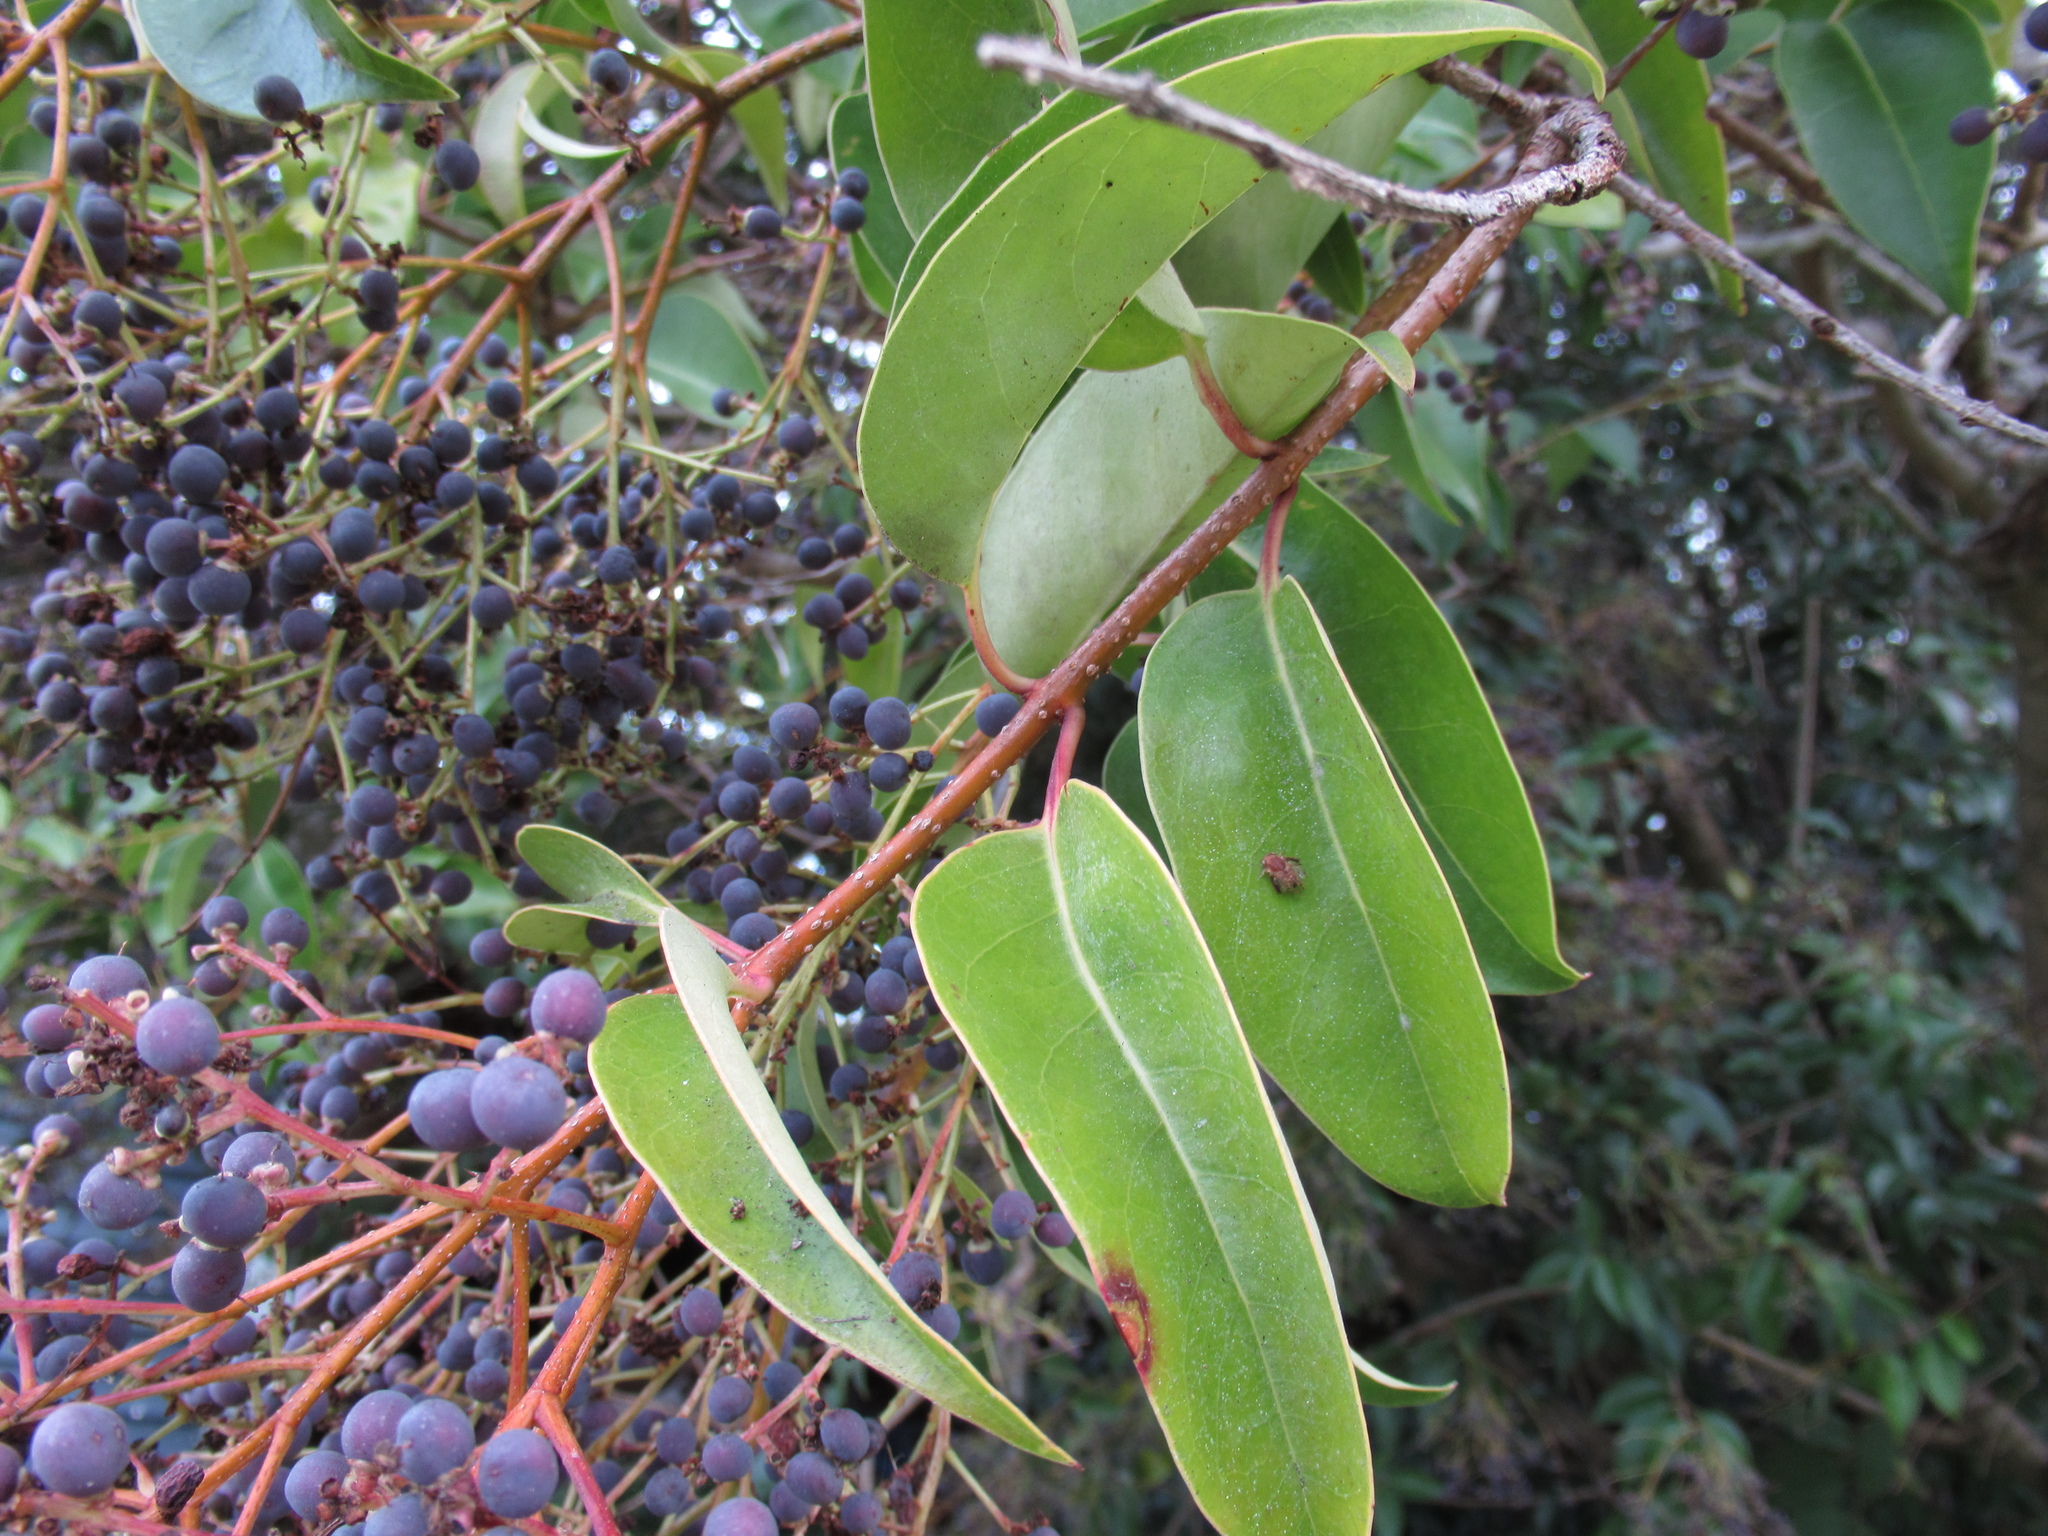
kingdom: Plantae
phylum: Tracheophyta
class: Magnoliopsida
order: Lamiales
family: Oleaceae
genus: Ligustrum
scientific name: Ligustrum lucidum
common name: Glossy privet
